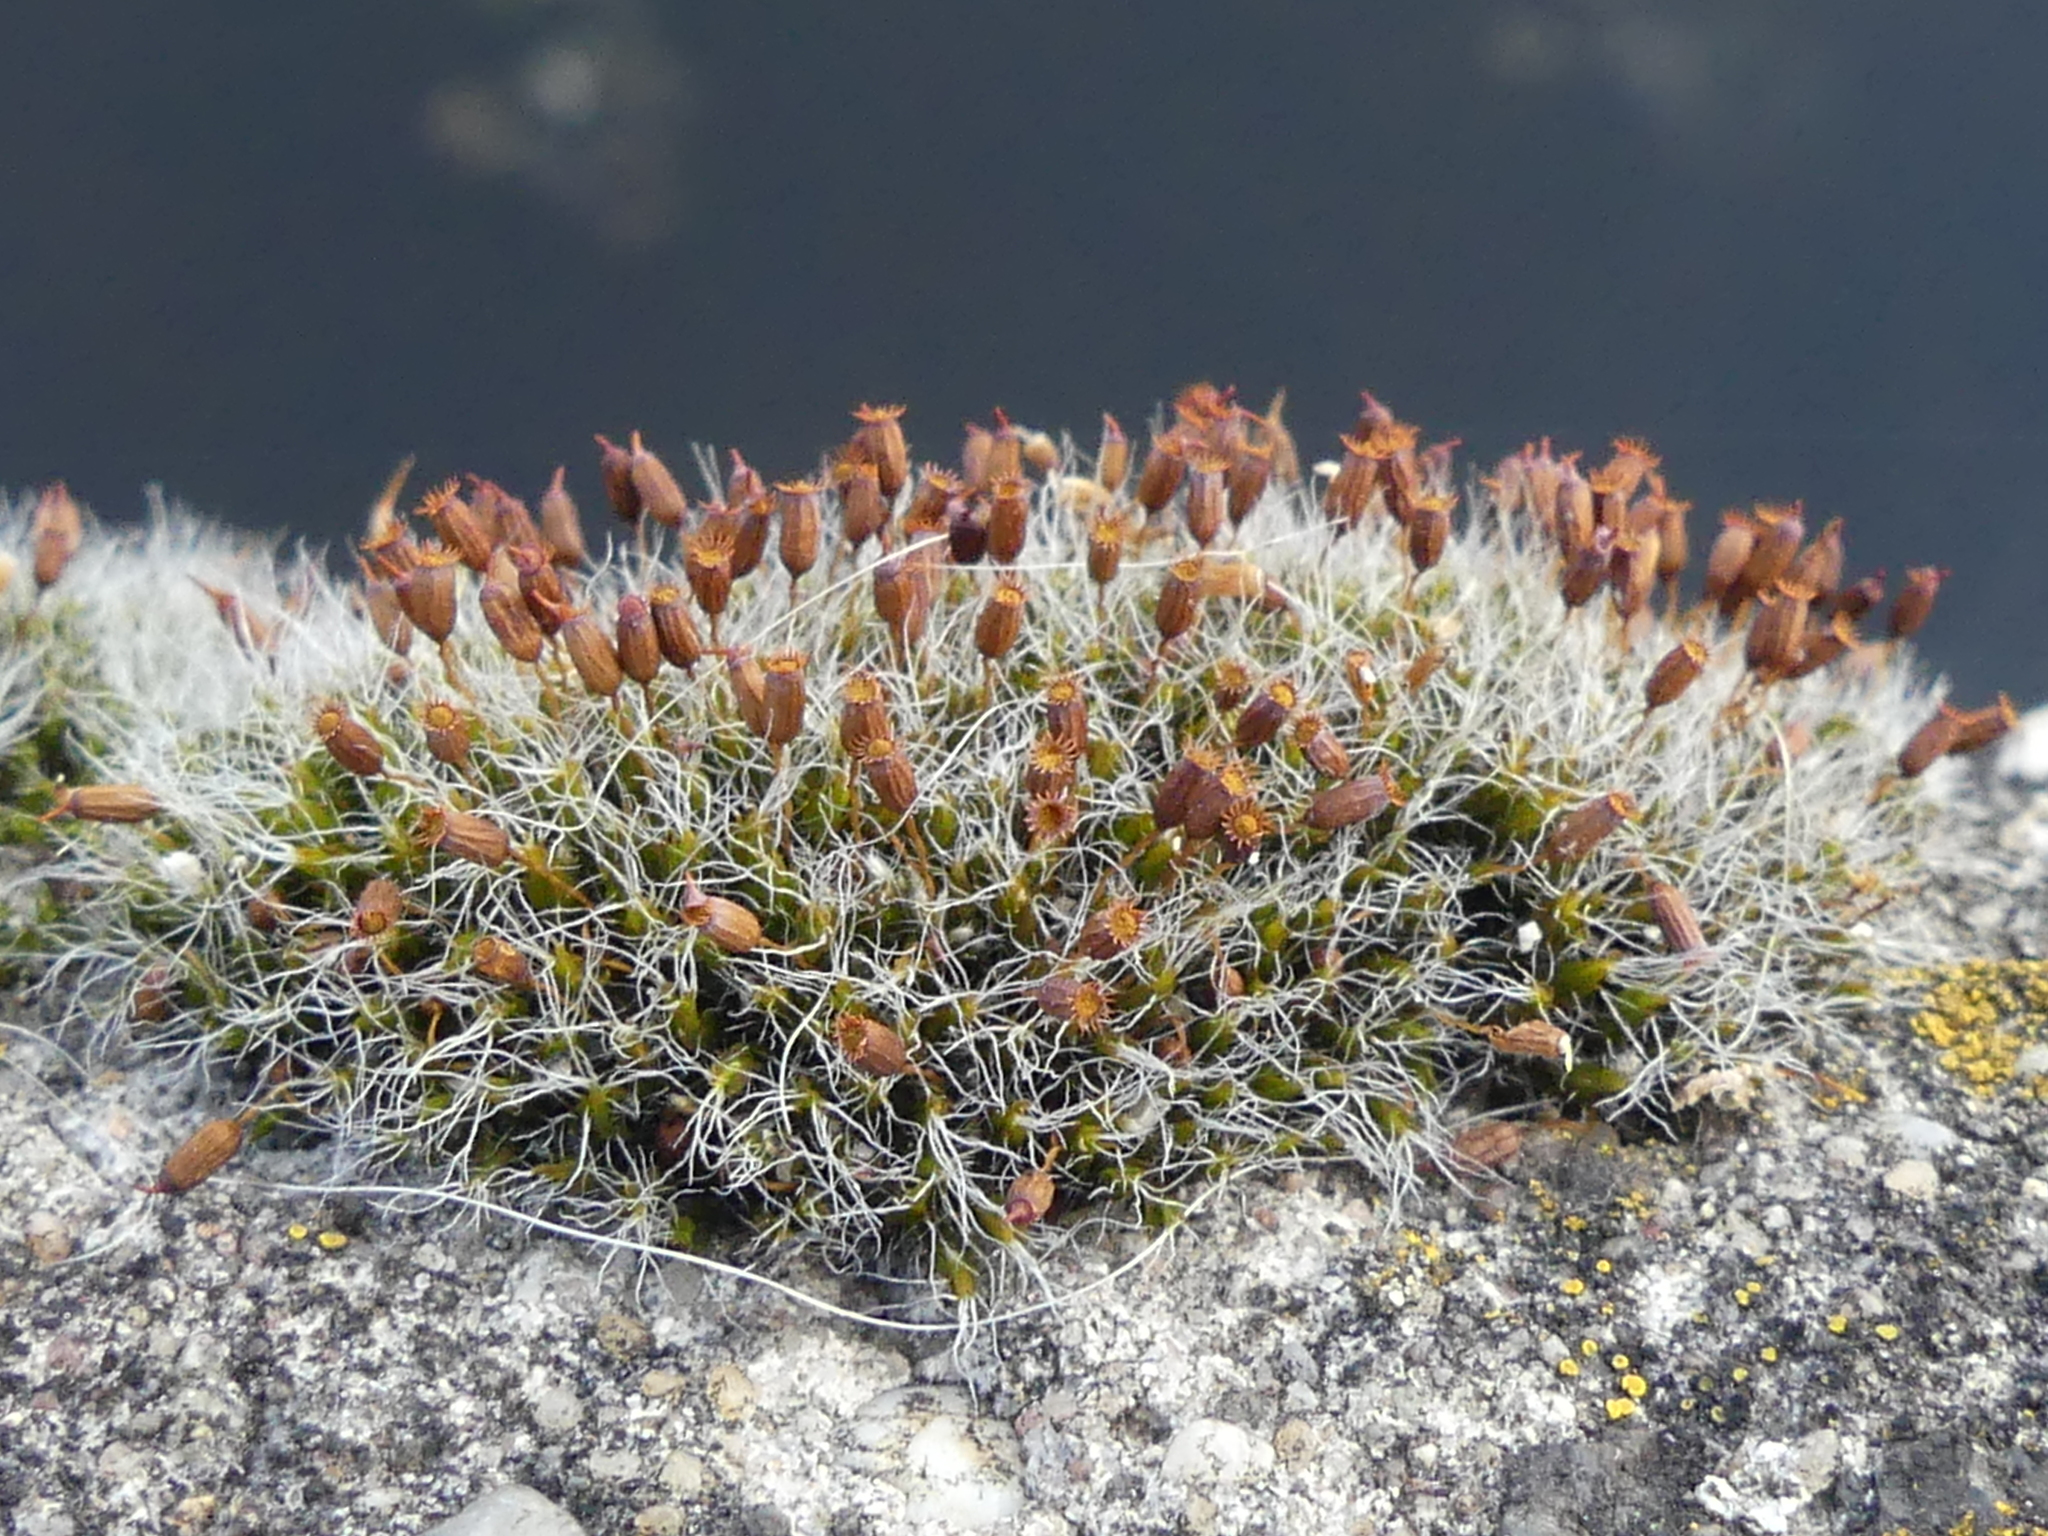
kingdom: Plantae
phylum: Bryophyta
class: Bryopsida
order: Grimmiales
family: Grimmiaceae
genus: Grimmia
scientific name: Grimmia pulvinata
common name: Grey-cushioned grimmia
